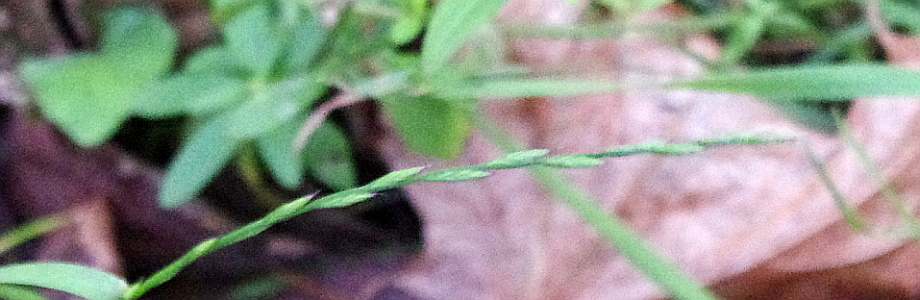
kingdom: Plantae
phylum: Tracheophyta
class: Liliopsida
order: Poales
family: Poaceae
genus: Lolium
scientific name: Lolium perenne
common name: Perennial ryegrass
